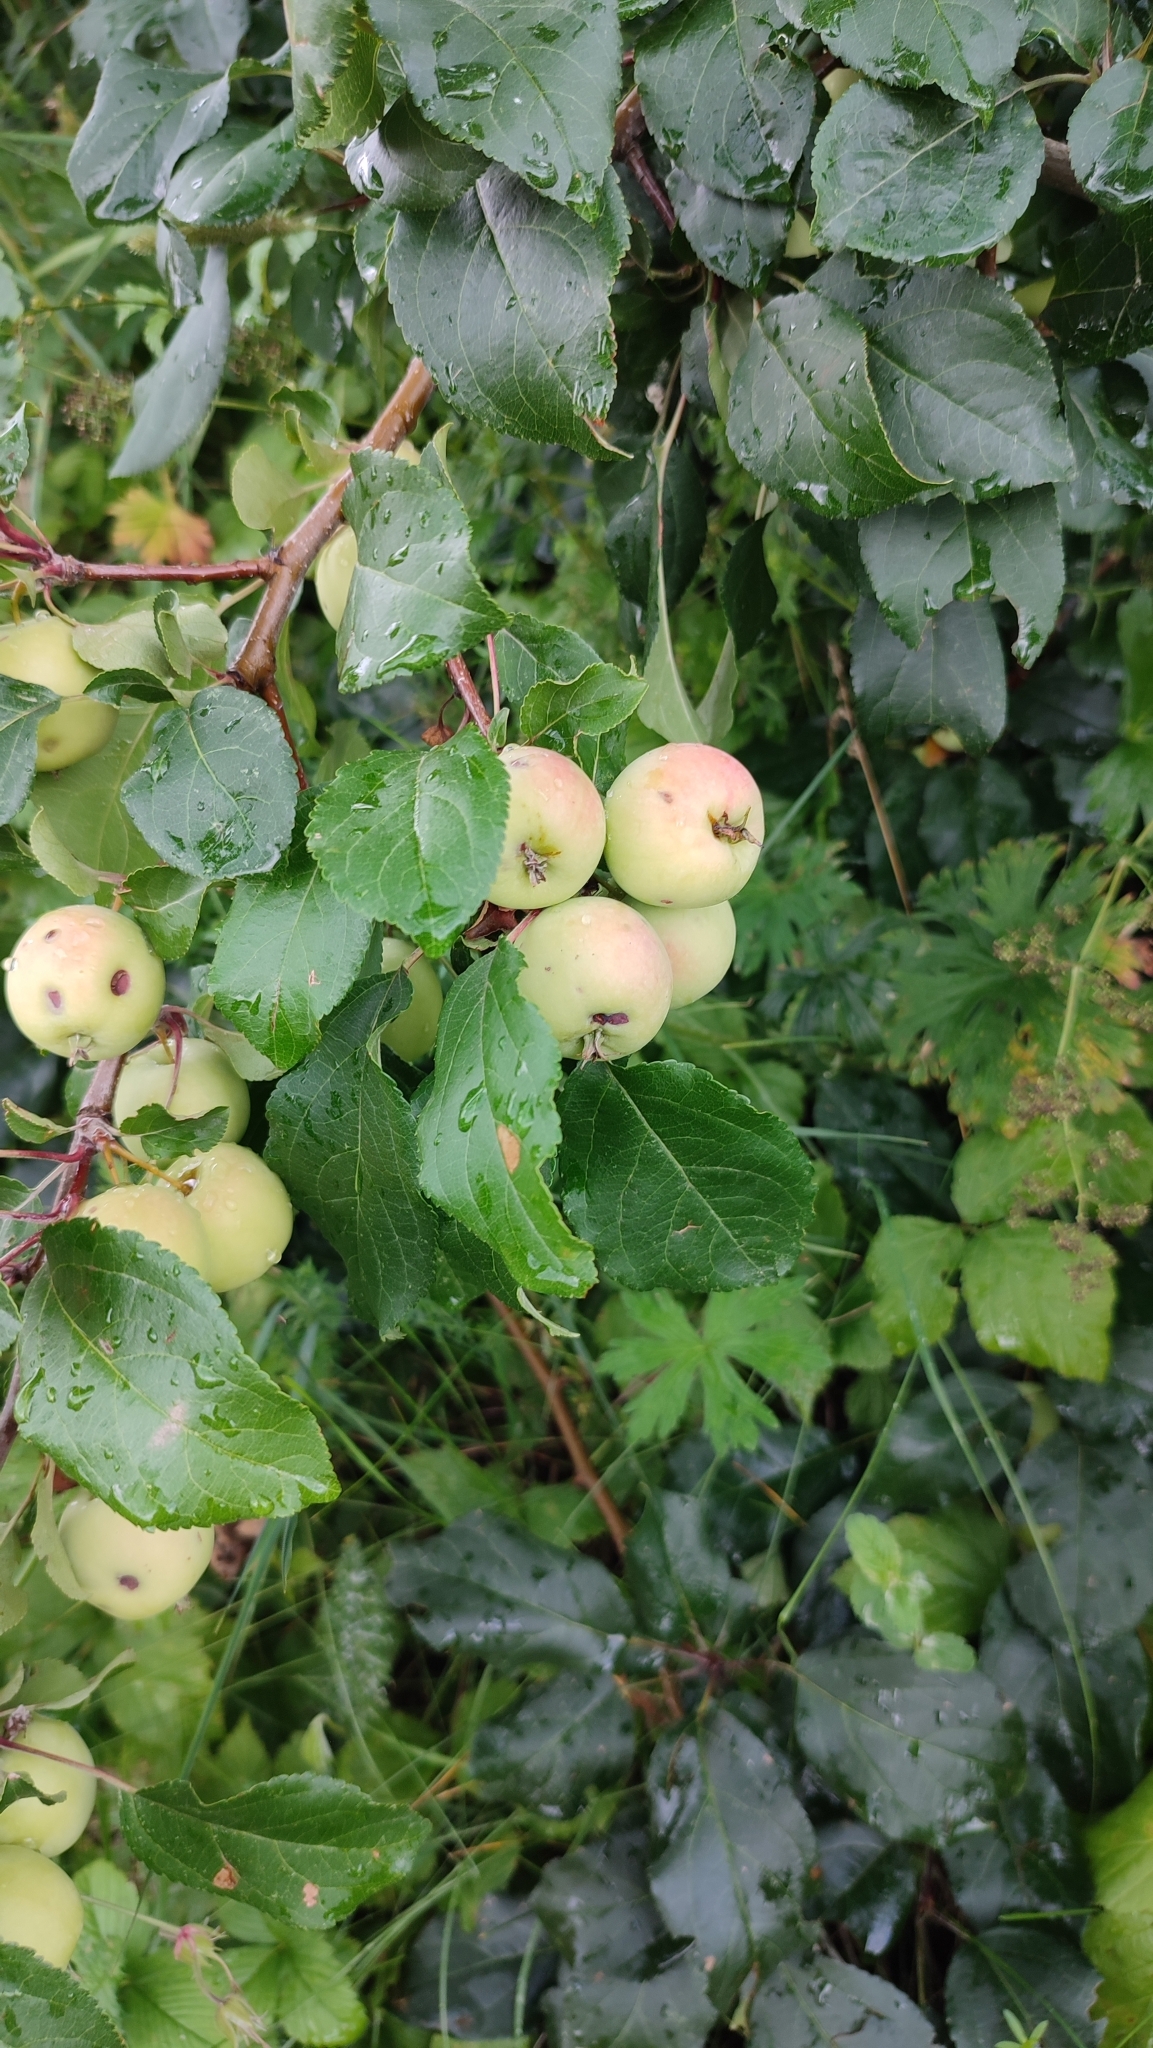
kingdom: Plantae
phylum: Tracheophyta
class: Magnoliopsida
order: Rosales
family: Rosaceae
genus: Malus
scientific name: Malus domestica
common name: Apple
